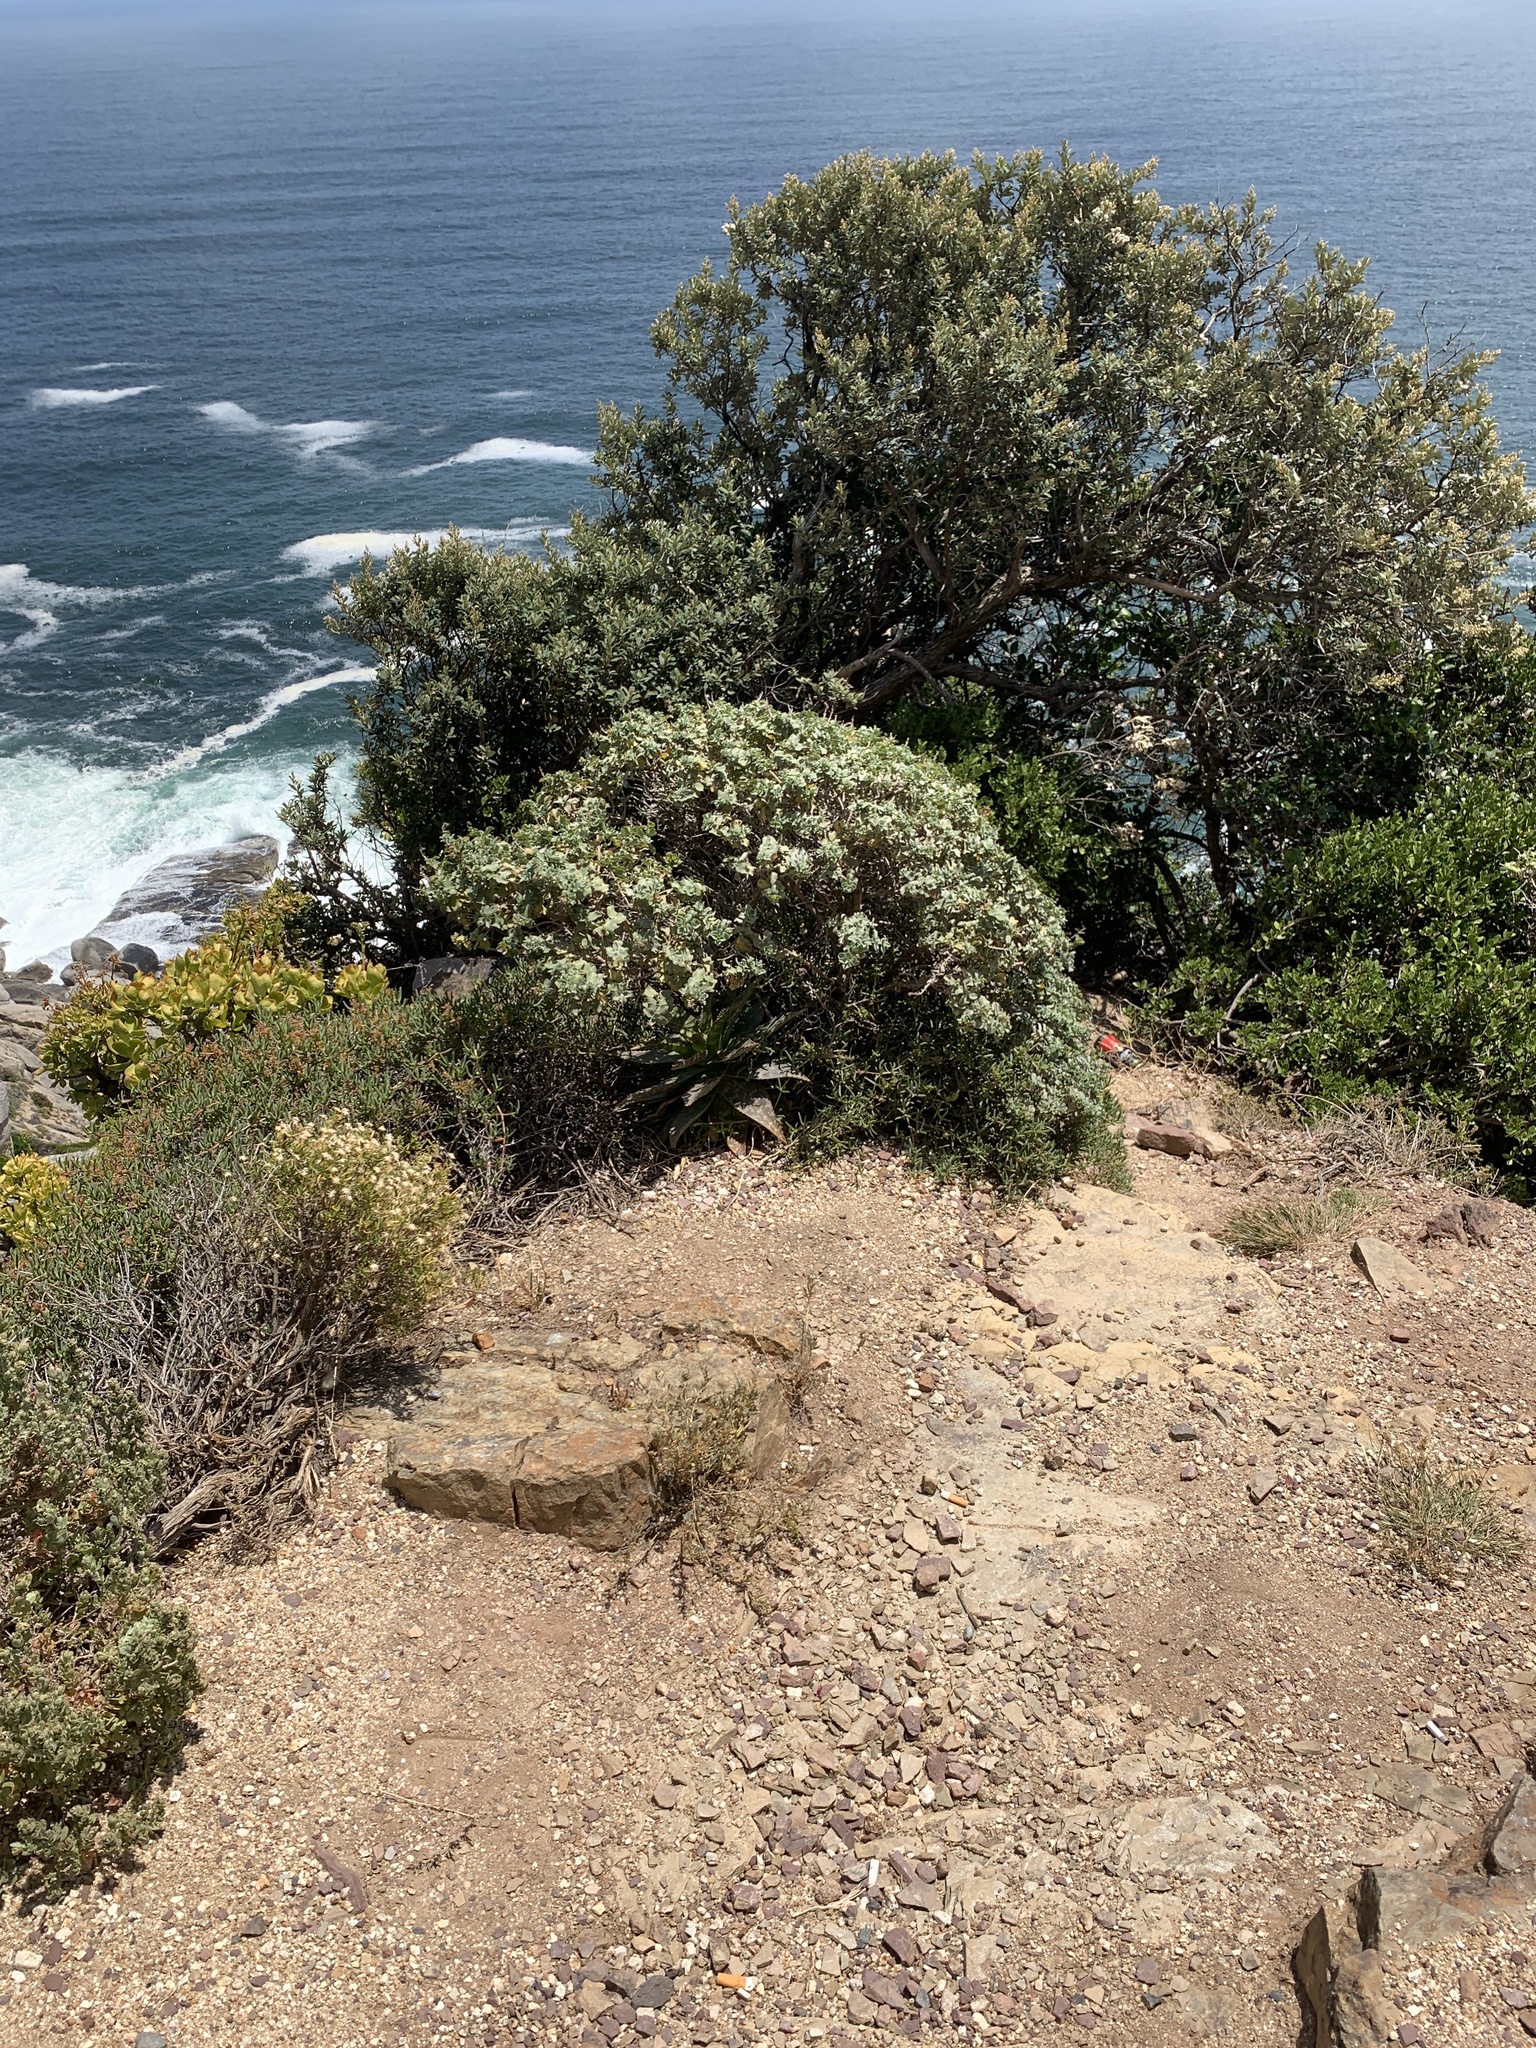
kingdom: Plantae
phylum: Tracheophyta
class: Liliopsida
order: Asparagales
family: Asphodelaceae
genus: Aloe
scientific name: Aloe maculata
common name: Broadleaf aloe
